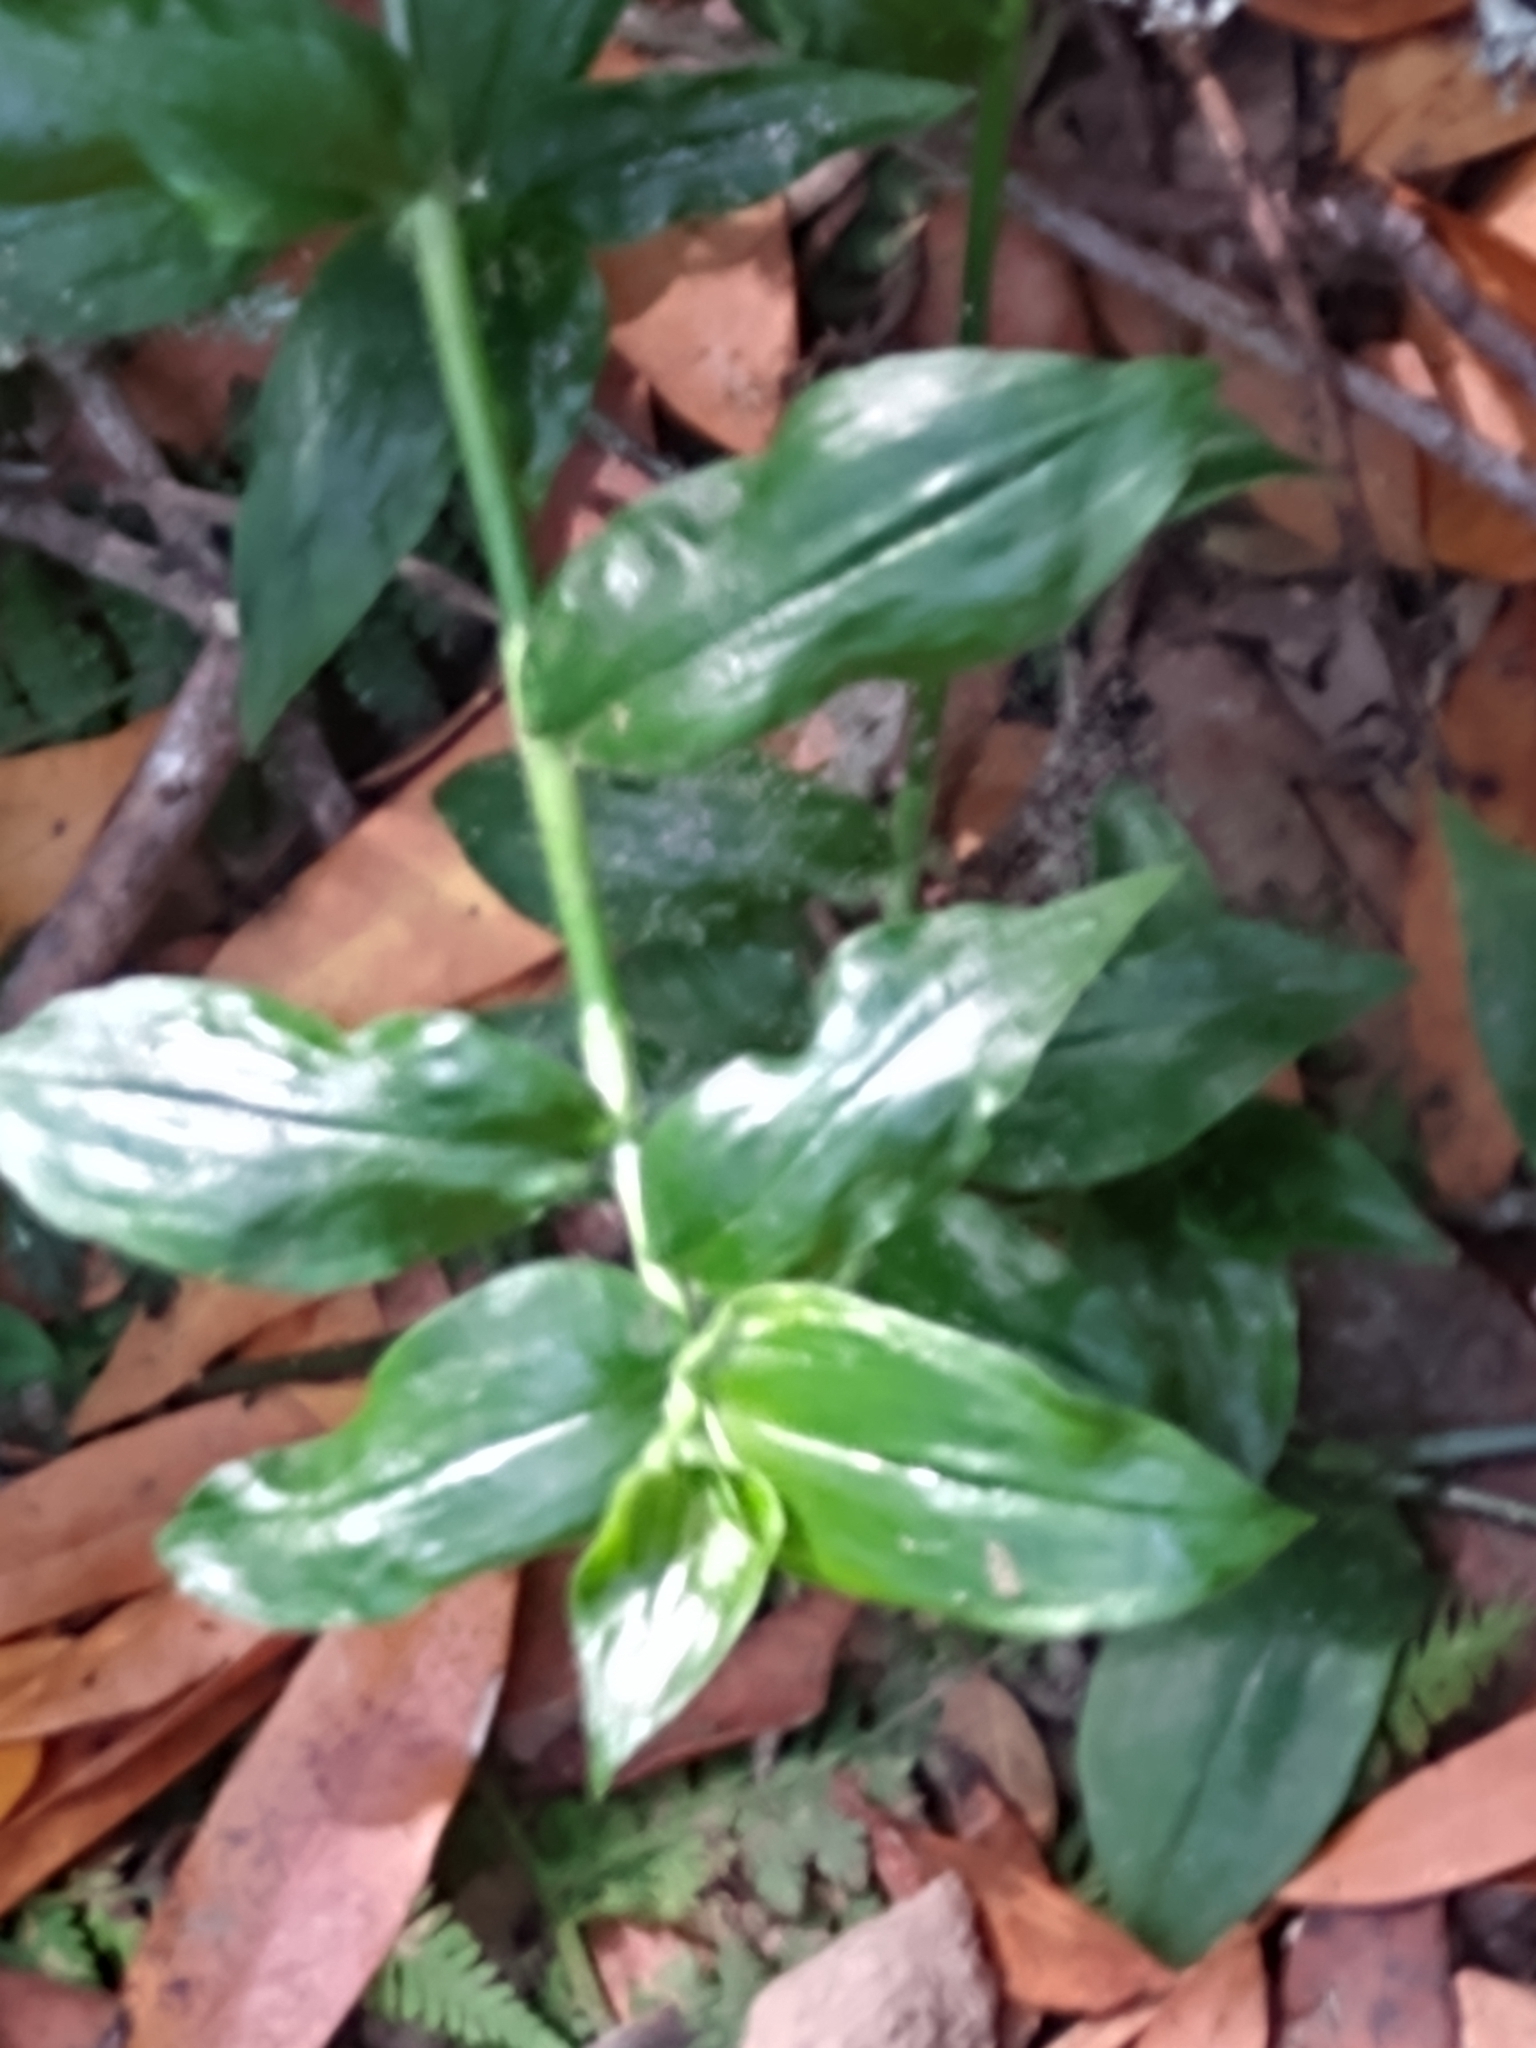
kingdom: Plantae
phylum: Tracheophyta
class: Liliopsida
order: Commelinales
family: Commelinaceae
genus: Tradescantia
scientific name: Tradescantia fluminensis
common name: Wandering-jew
